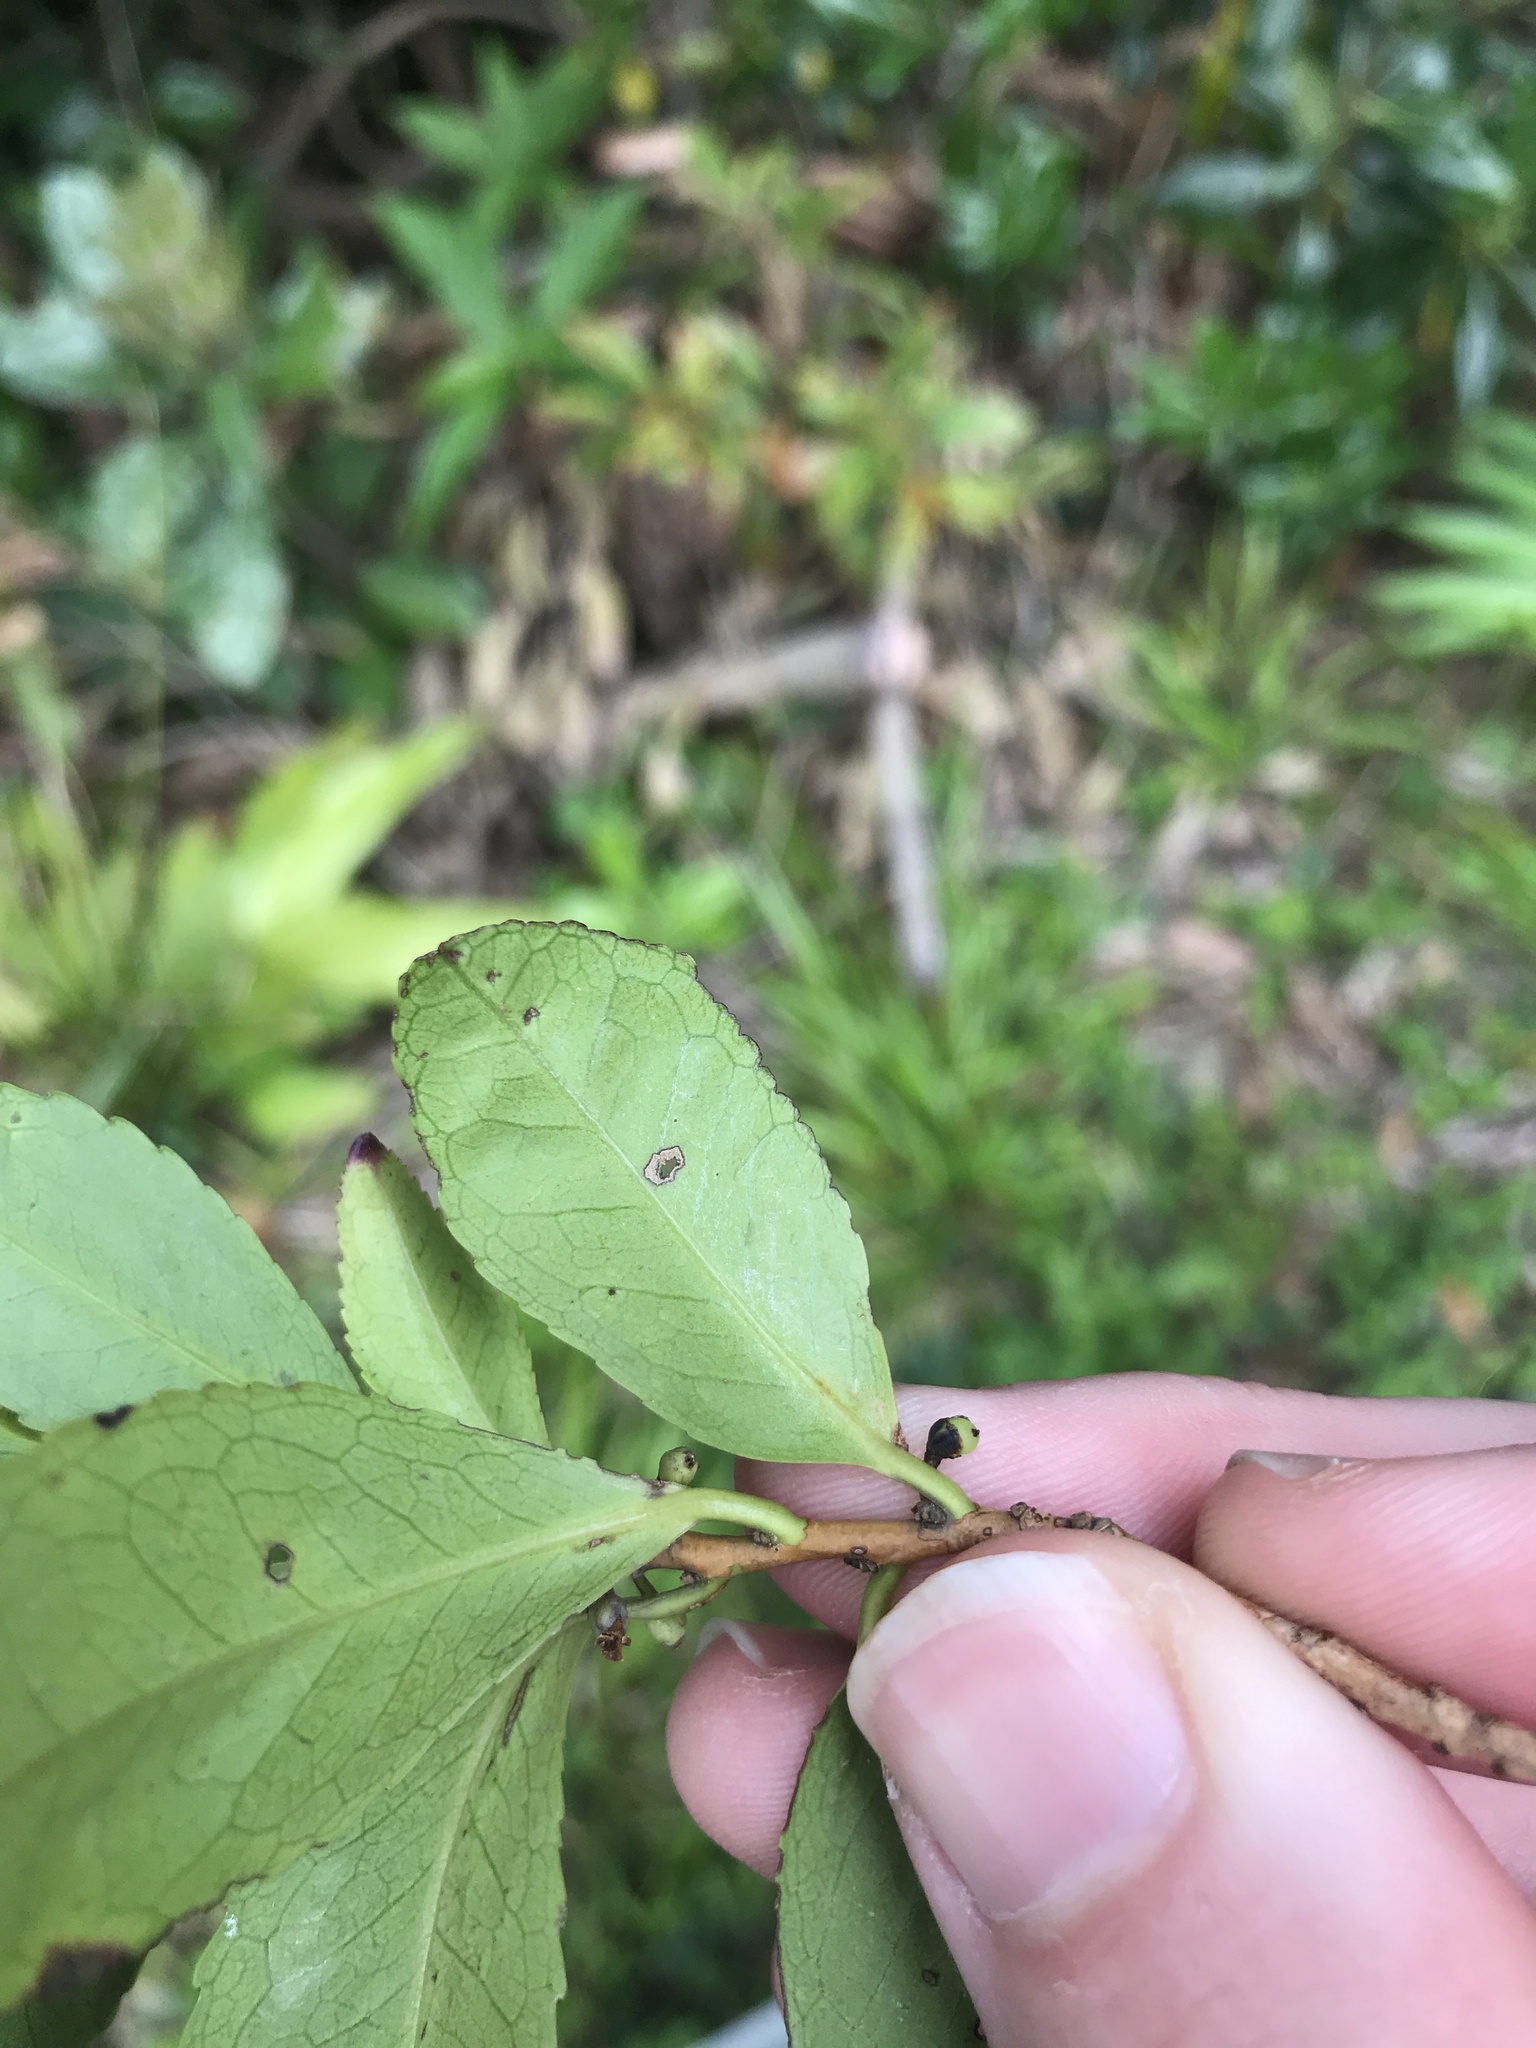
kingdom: Plantae
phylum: Tracheophyta
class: Magnoliopsida
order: Ericales
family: Pentaphylacaceae
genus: Eurya
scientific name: Eurya japonica
